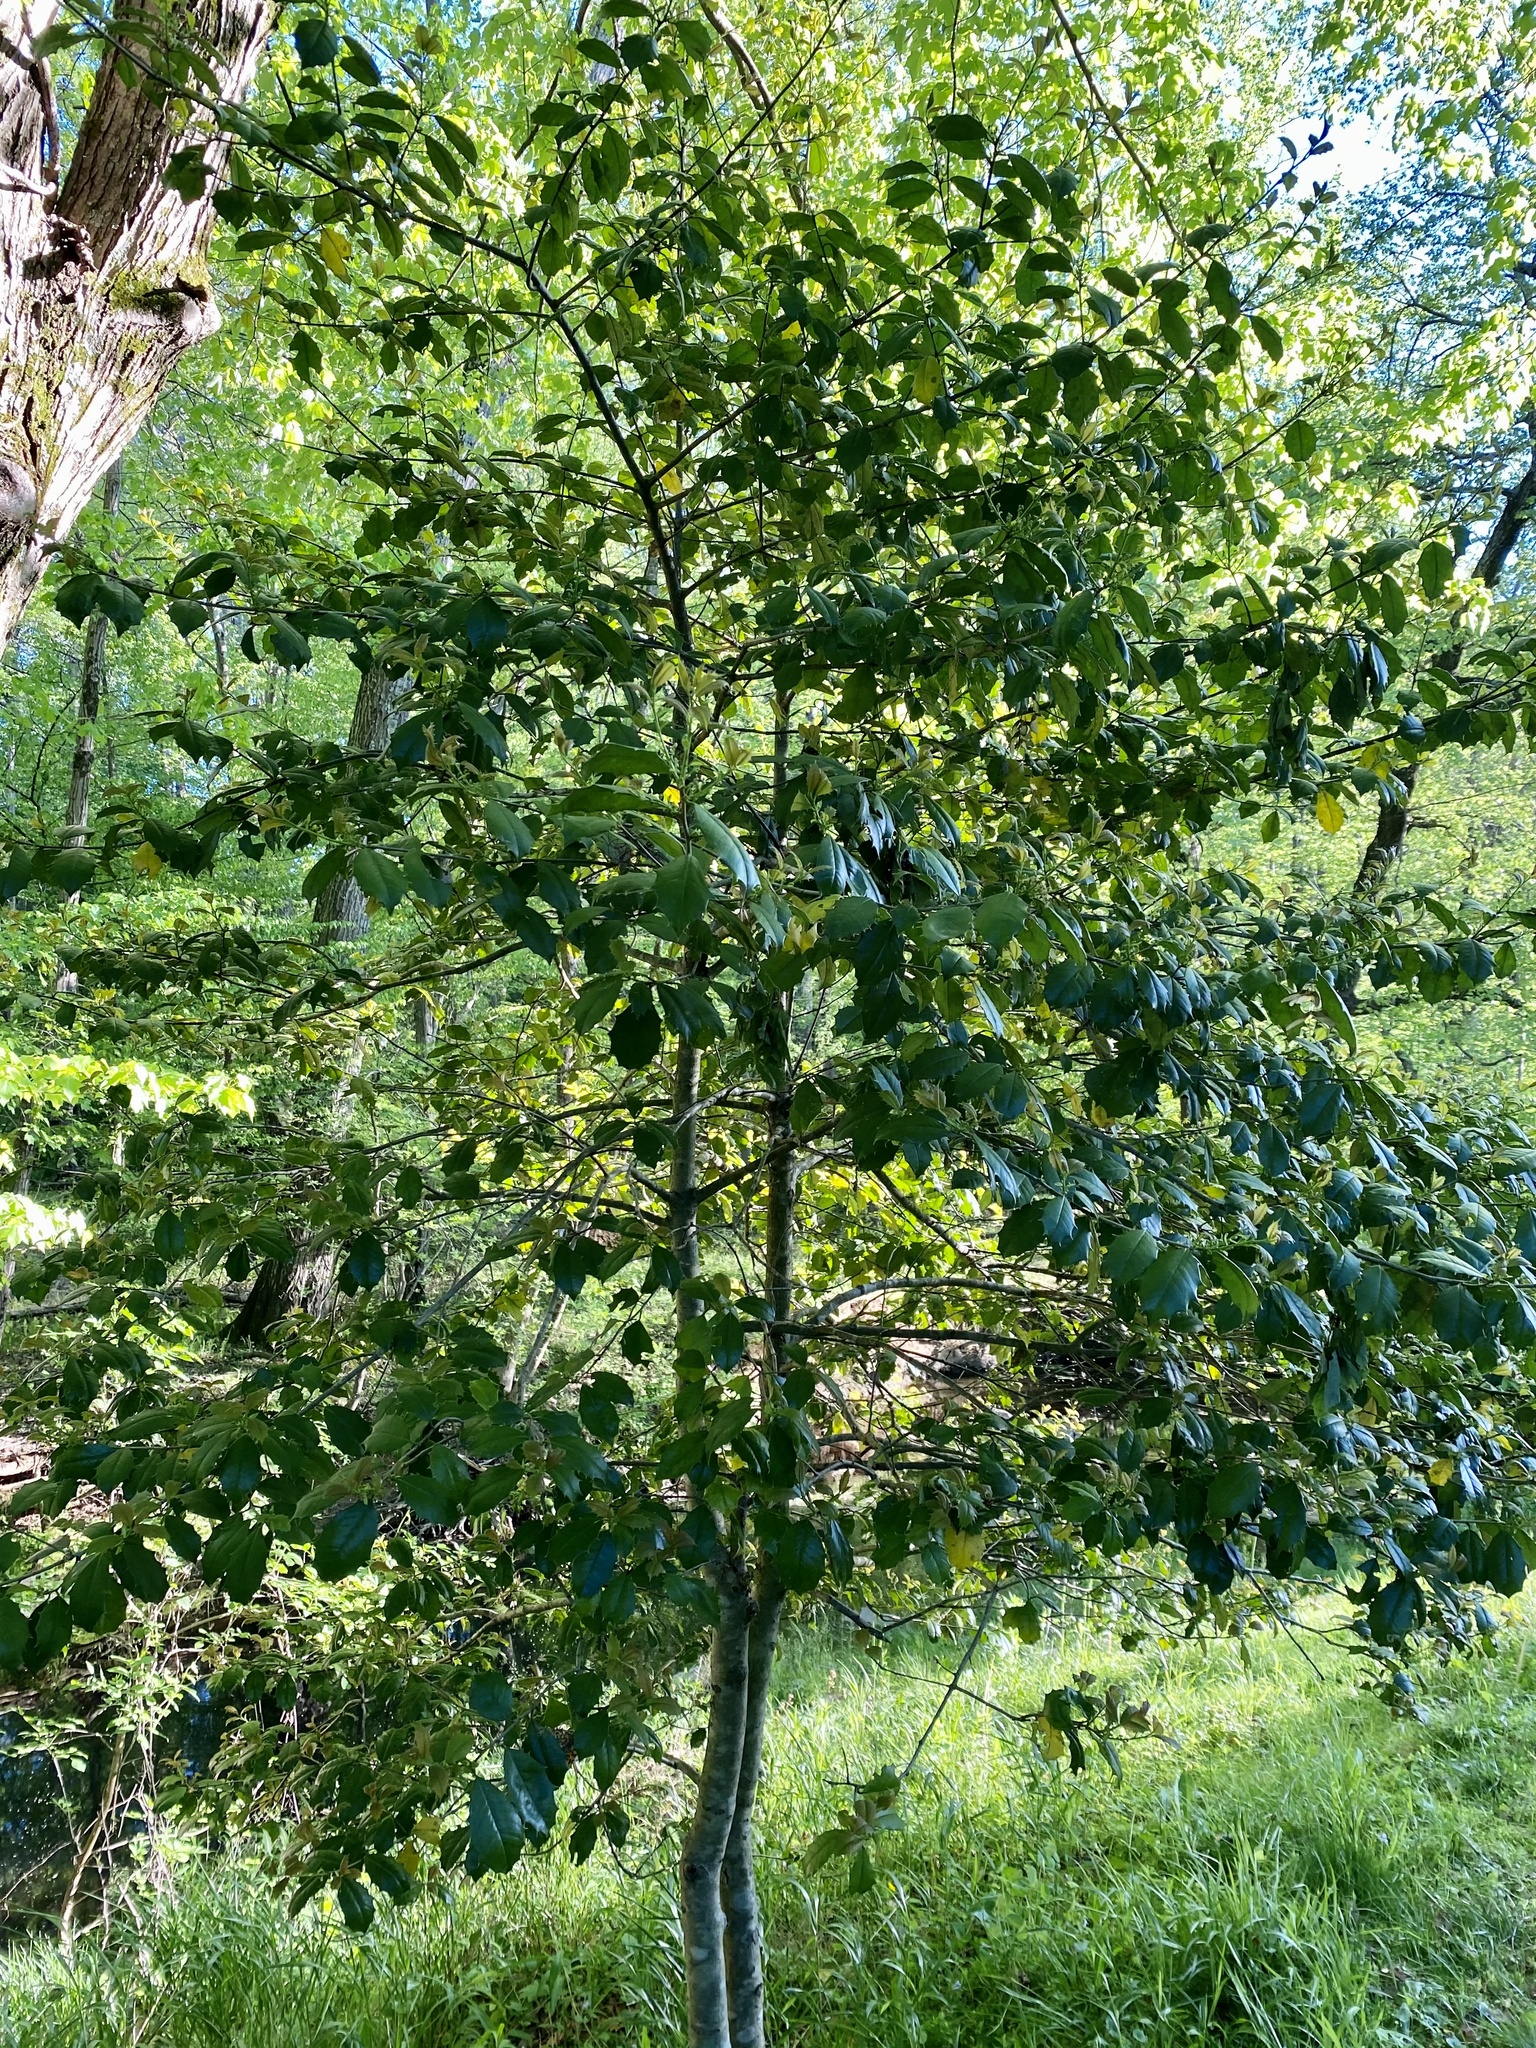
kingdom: Plantae
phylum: Tracheophyta
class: Magnoliopsida
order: Aquifoliales
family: Aquifoliaceae
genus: Ilex
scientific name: Ilex opaca
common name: American holly
